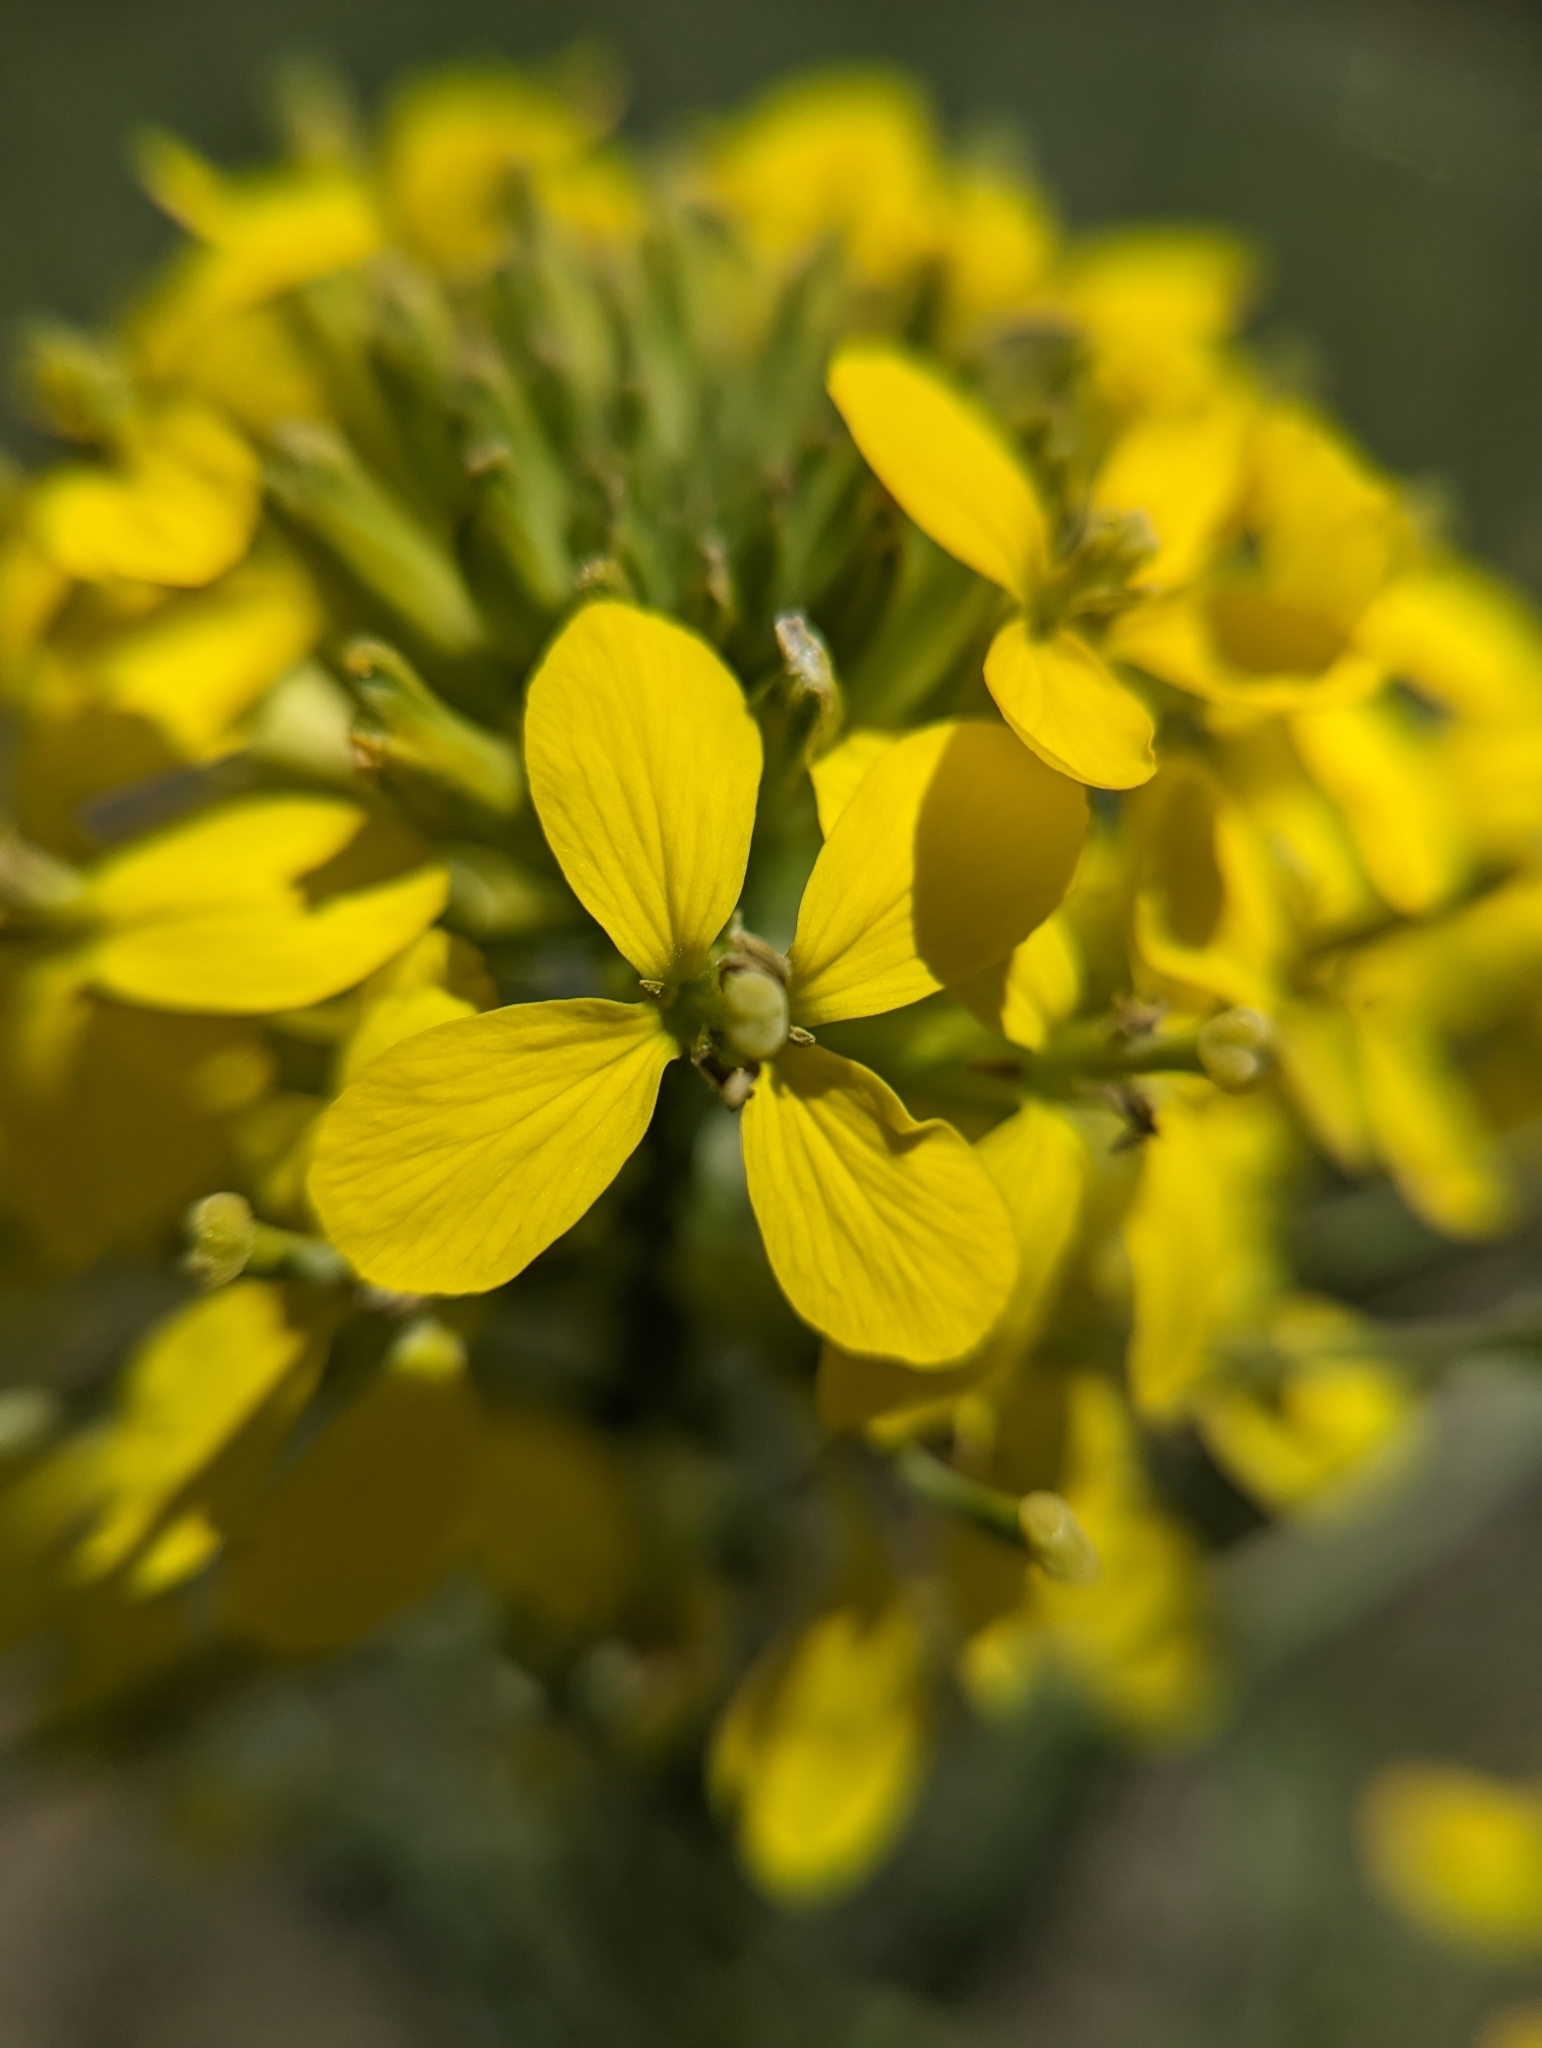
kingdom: Plantae
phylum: Tracheophyta
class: Magnoliopsida
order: Brassicales
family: Brassicaceae
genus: Erysimum
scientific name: Erysimum asperum
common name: Western wallflower
